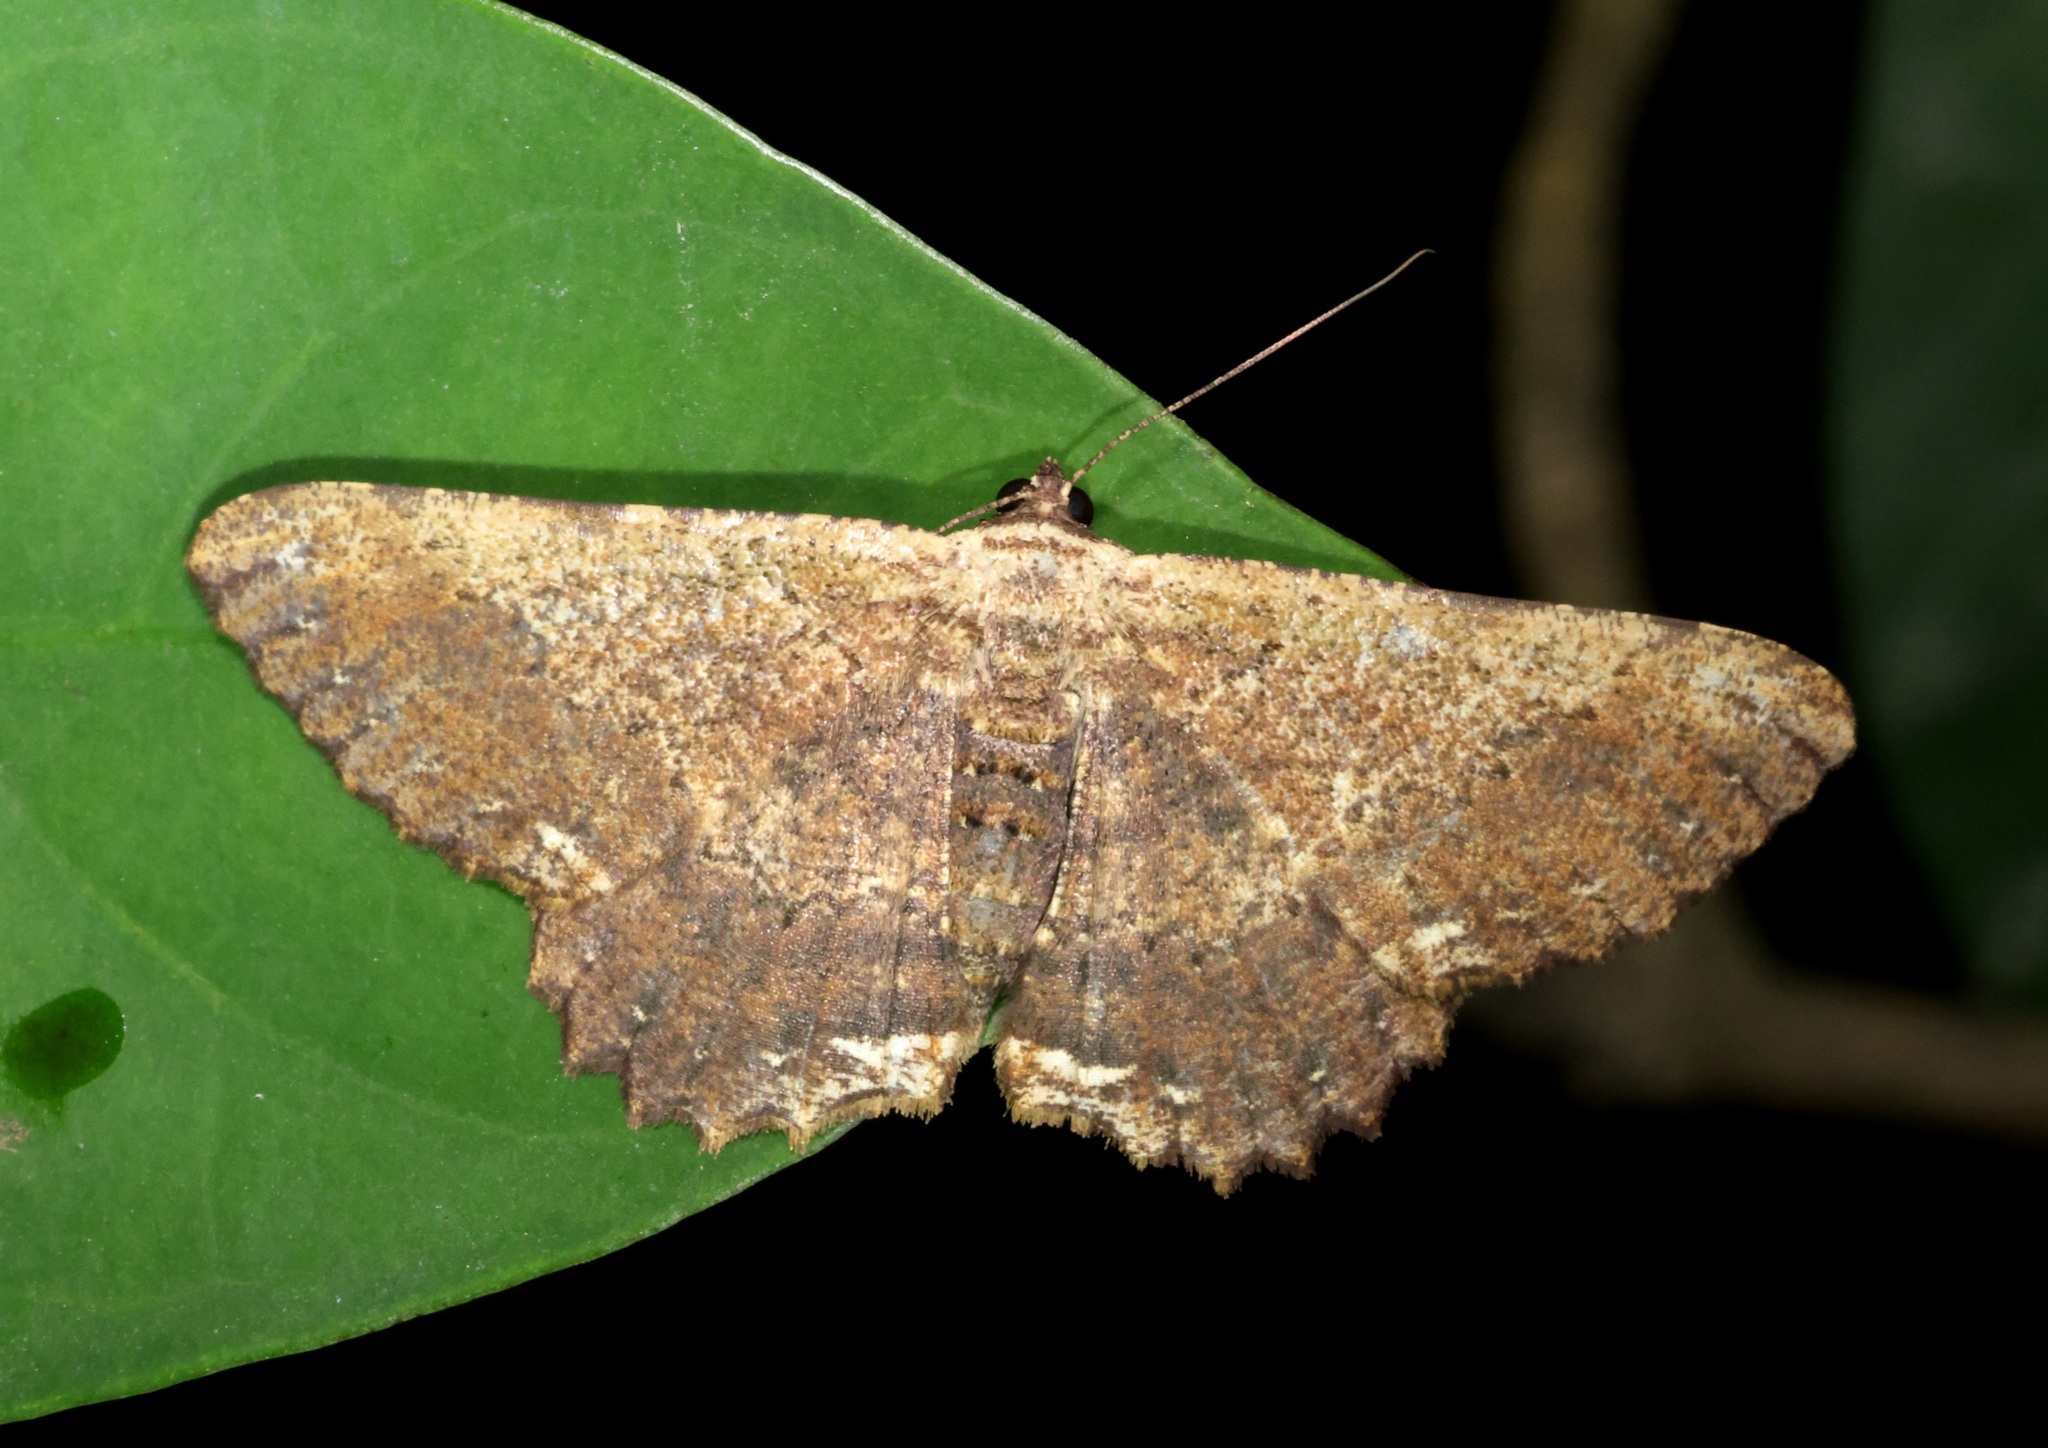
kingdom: Animalia
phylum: Arthropoda
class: Insecta
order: Lepidoptera
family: Geometridae
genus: Ruttellerona
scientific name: Ruttellerona pseudocessaria
